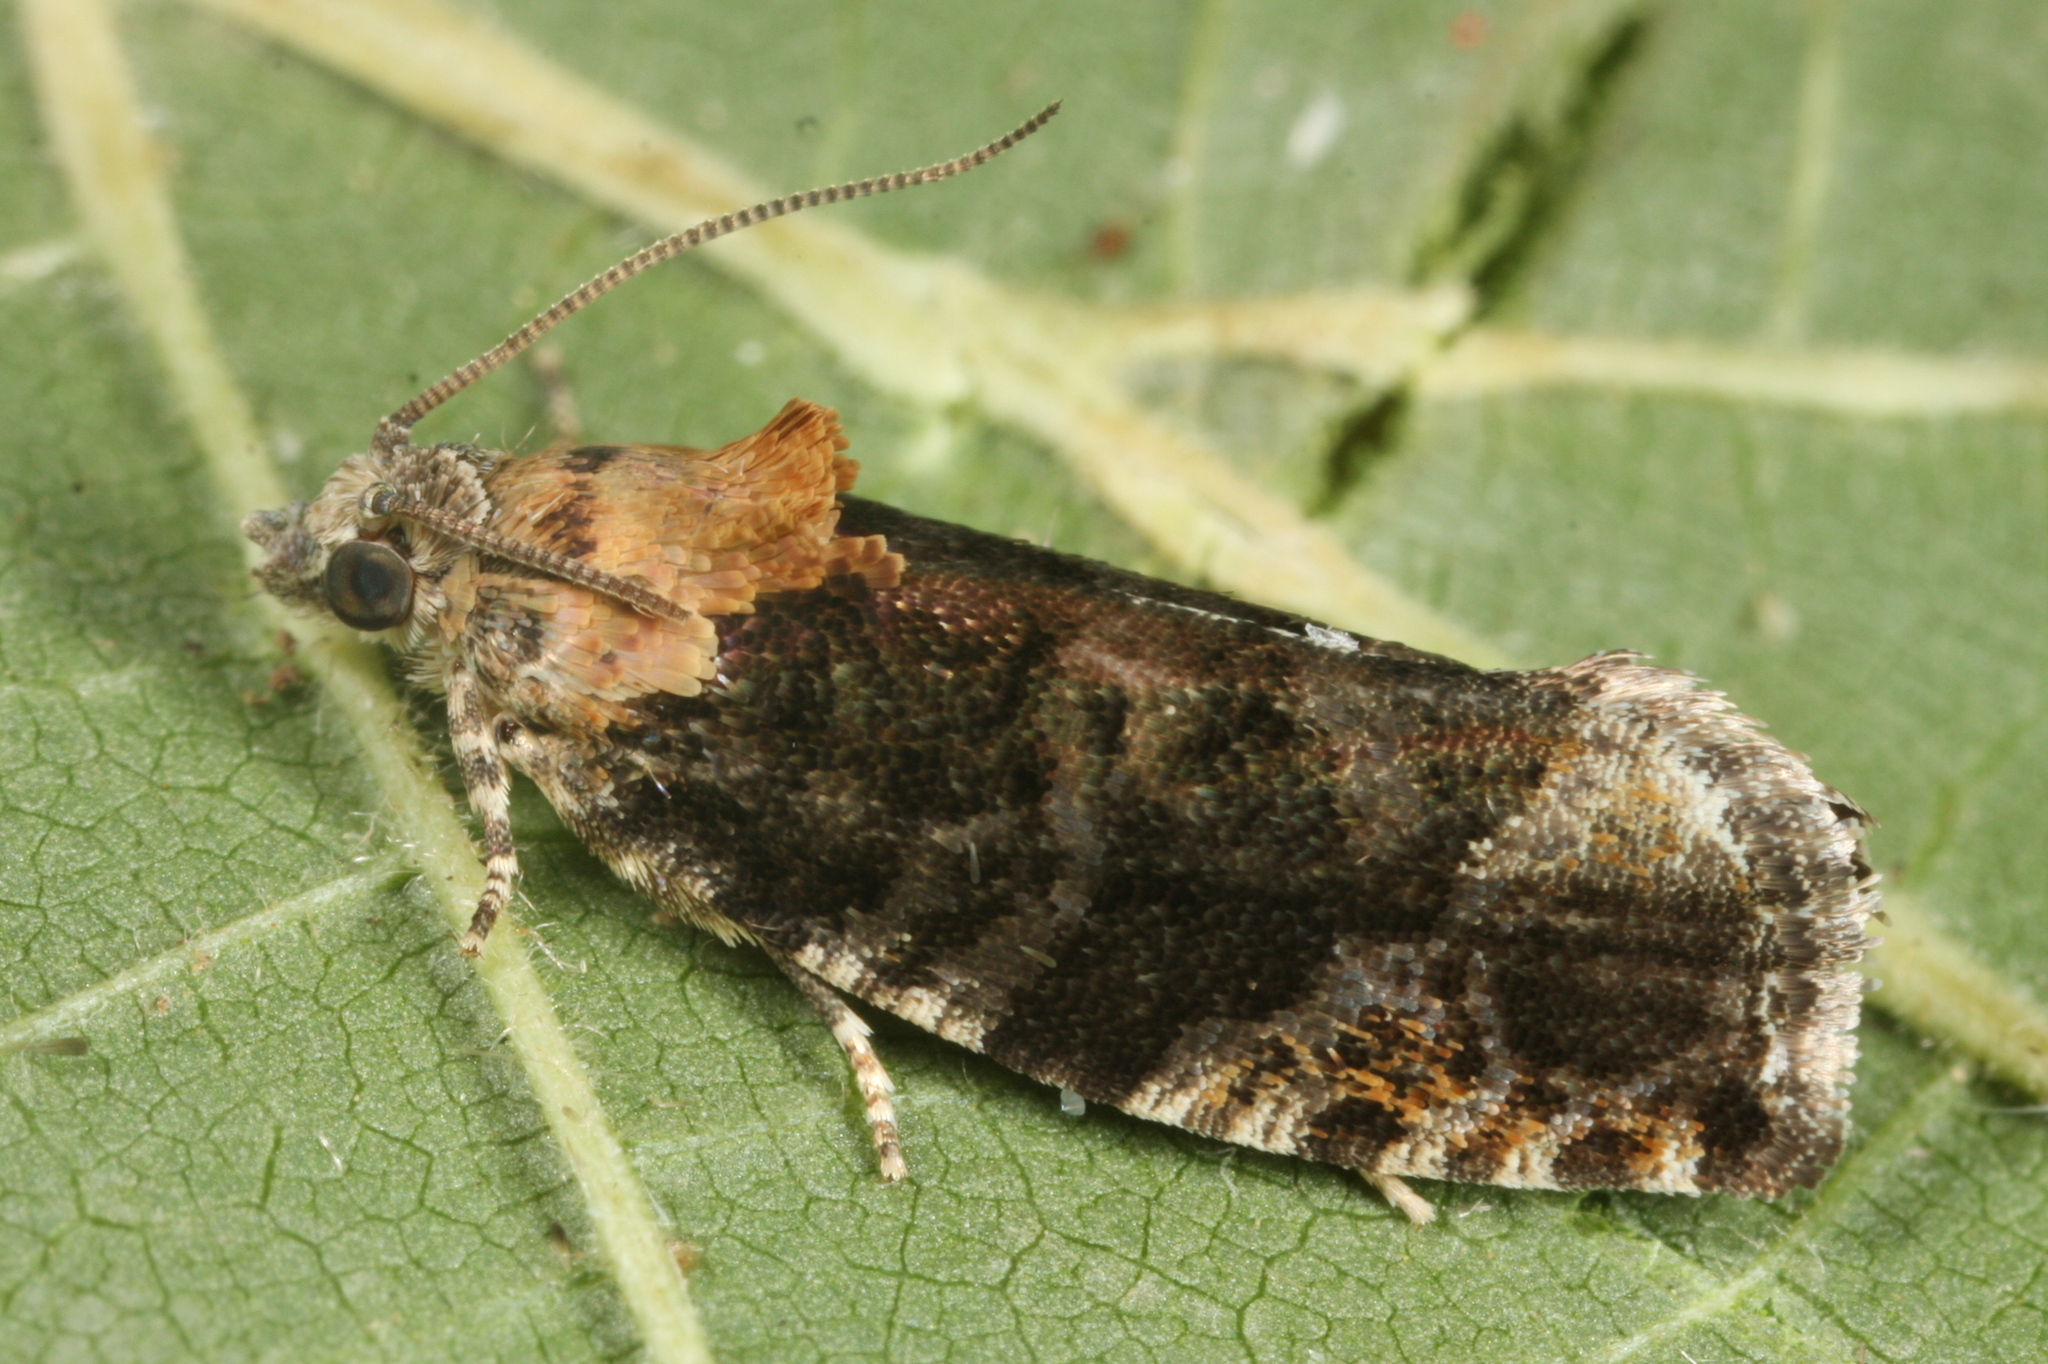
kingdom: Animalia
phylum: Arthropoda
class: Insecta
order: Lepidoptera
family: Tortricidae
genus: Eudemis
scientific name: Eudemis profundana
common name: Diamond-back marble
